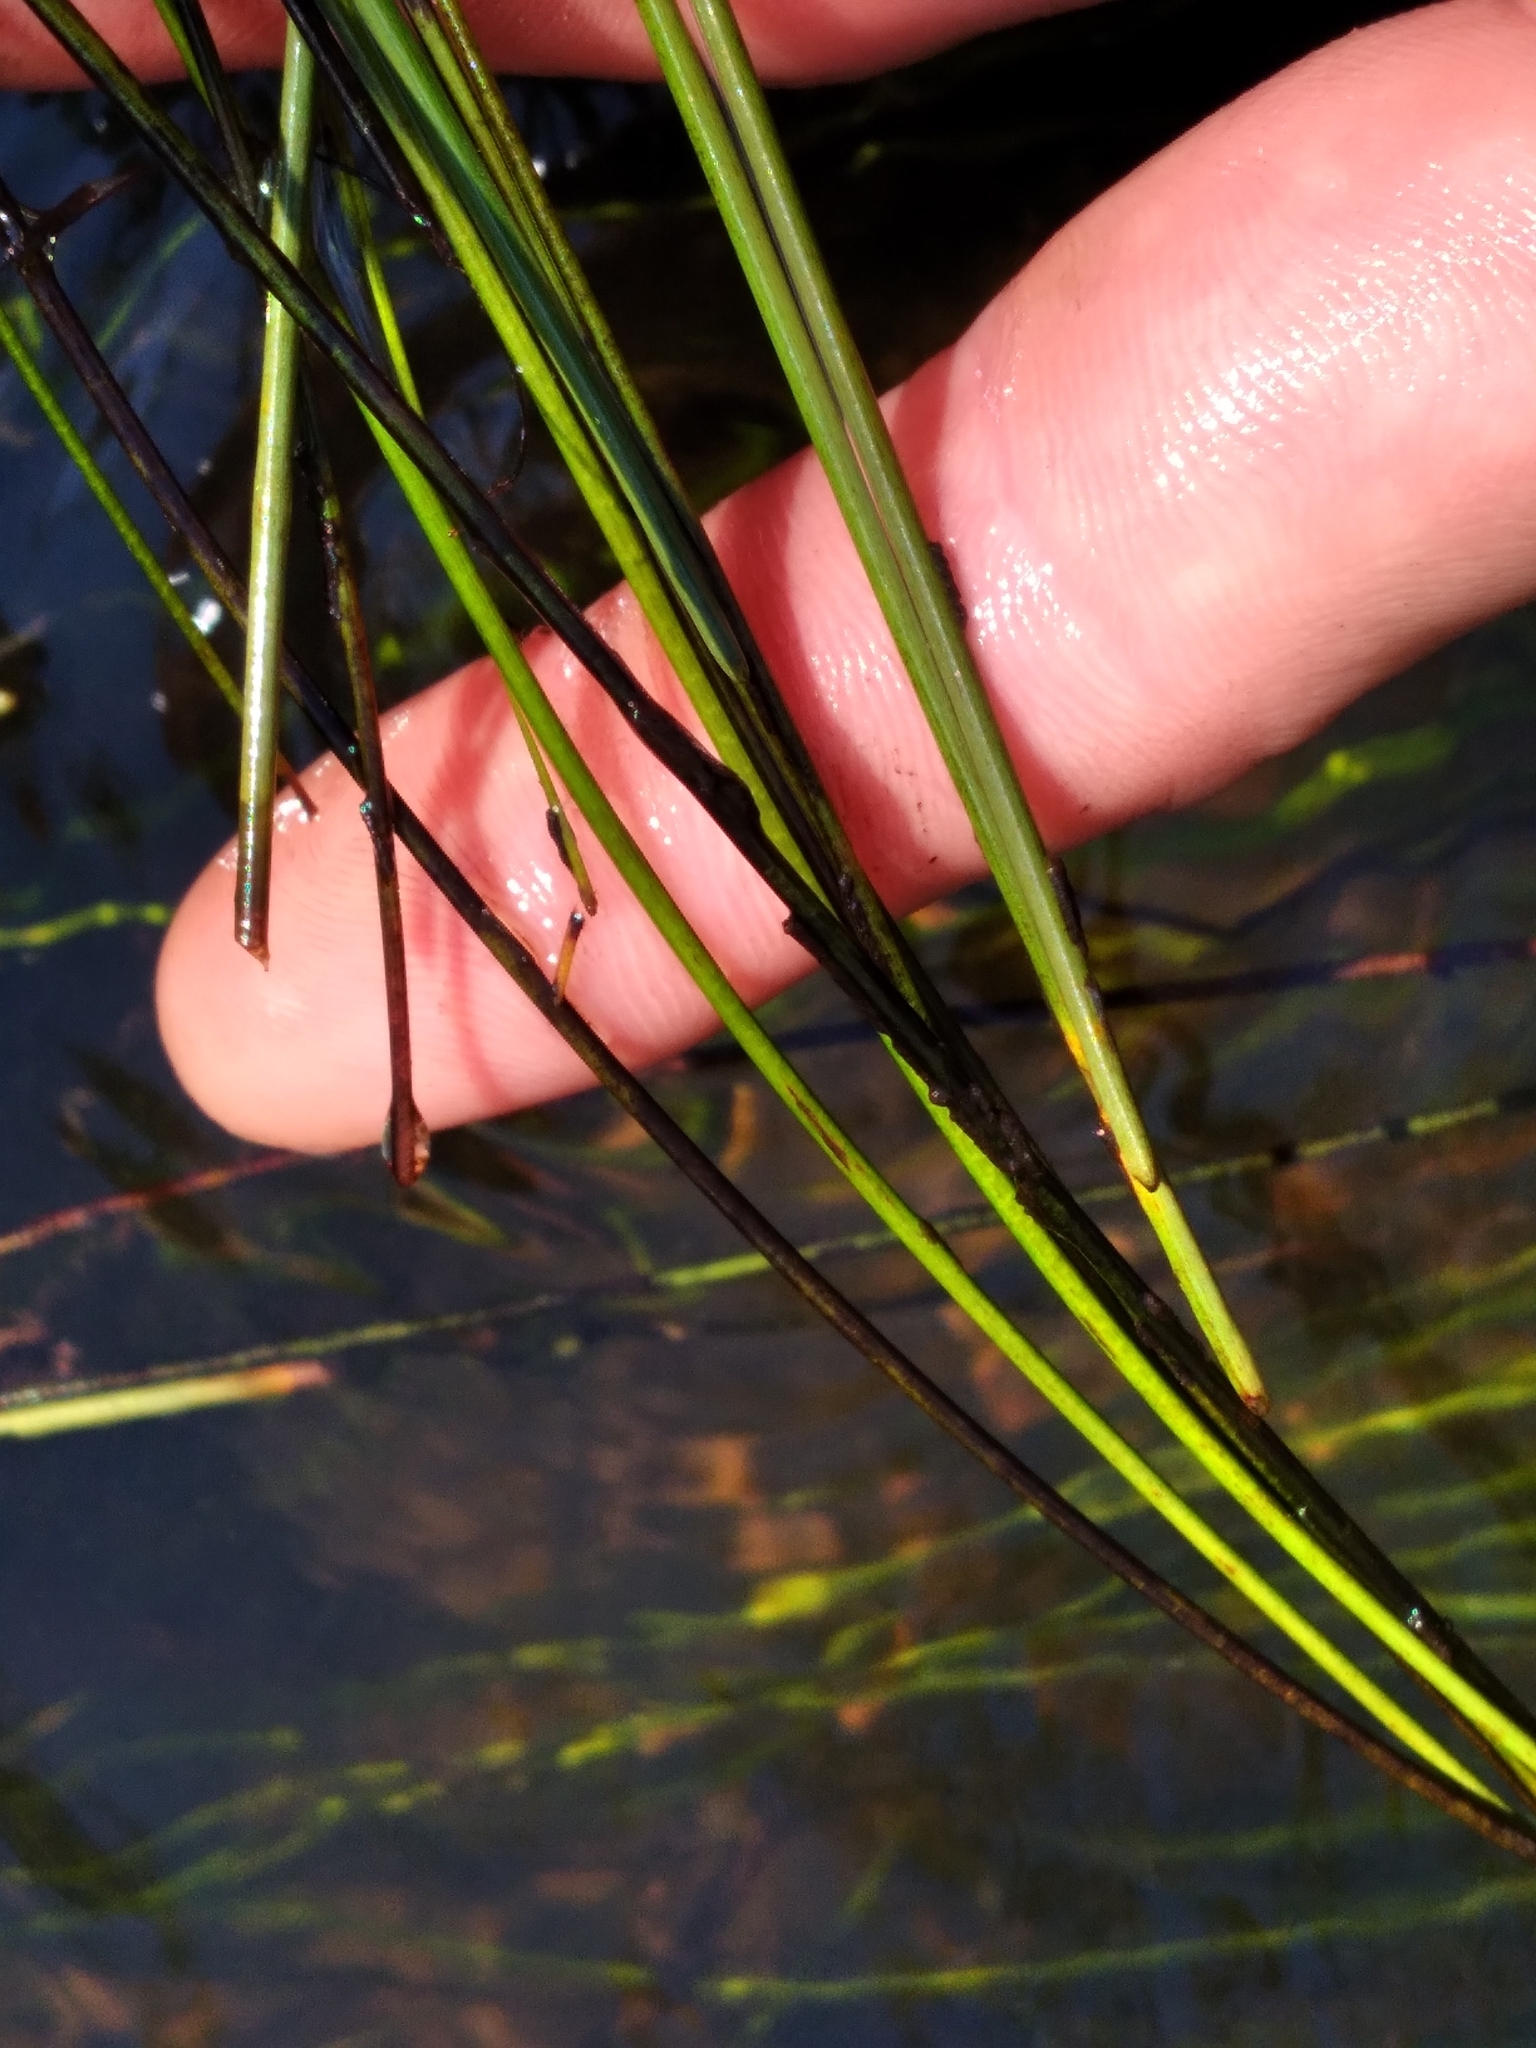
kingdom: Plantae
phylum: Tracheophyta
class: Liliopsida
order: Poales
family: Cyperaceae
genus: Eleocharis
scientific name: Eleocharis elongata
